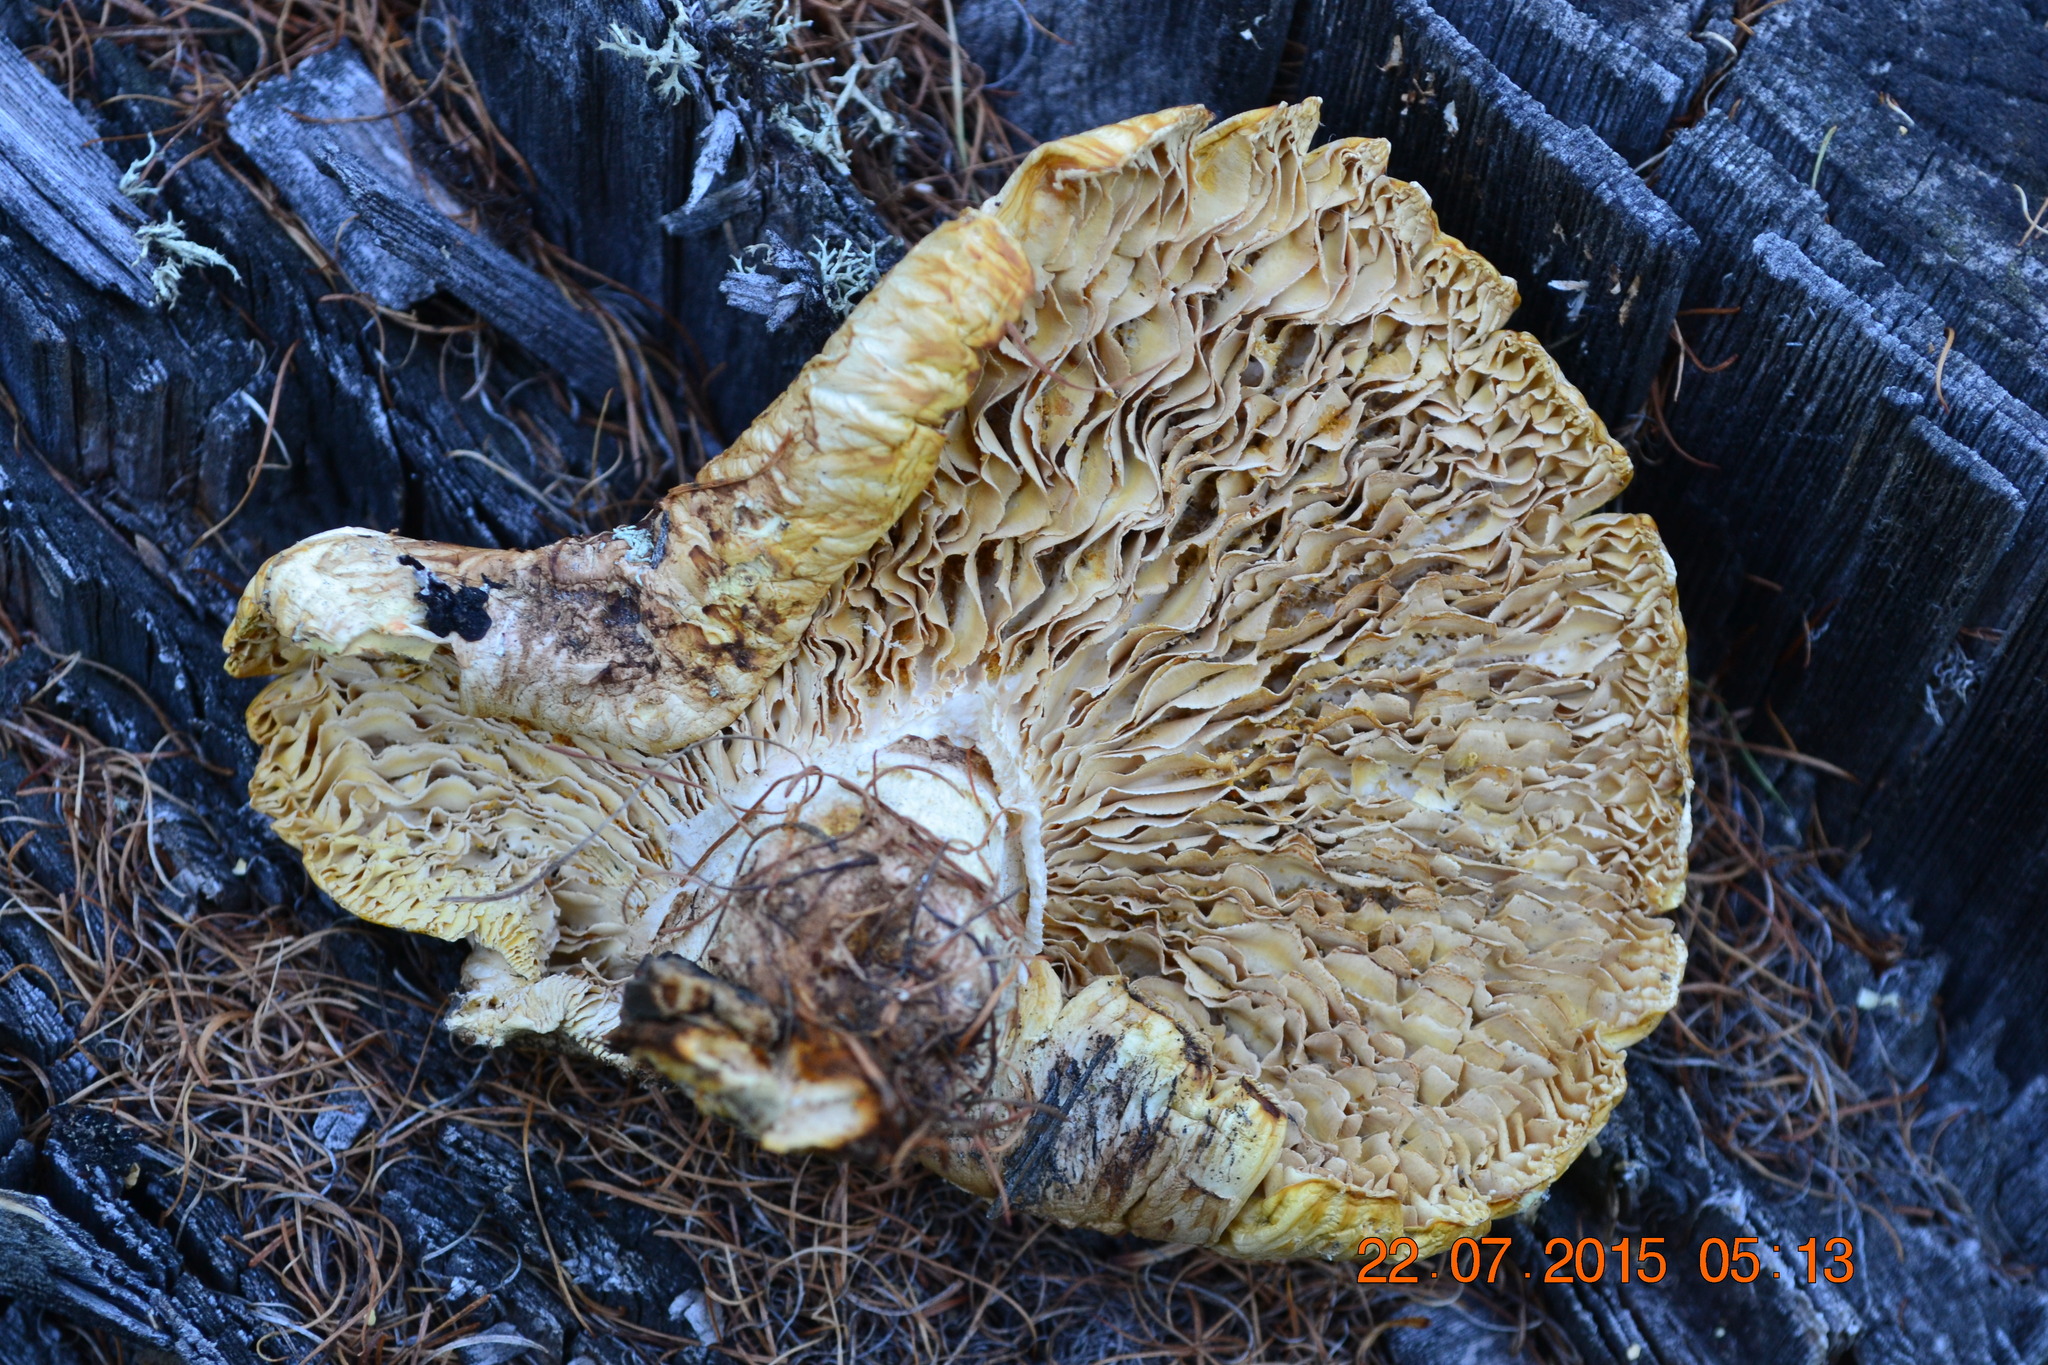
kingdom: Fungi
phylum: Basidiomycota
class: Agaricomycetes
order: Gloeophyllales
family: Gloeophyllaceae
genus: Neolentinus
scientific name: Neolentinus lepideus
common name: Scaly sawgill
